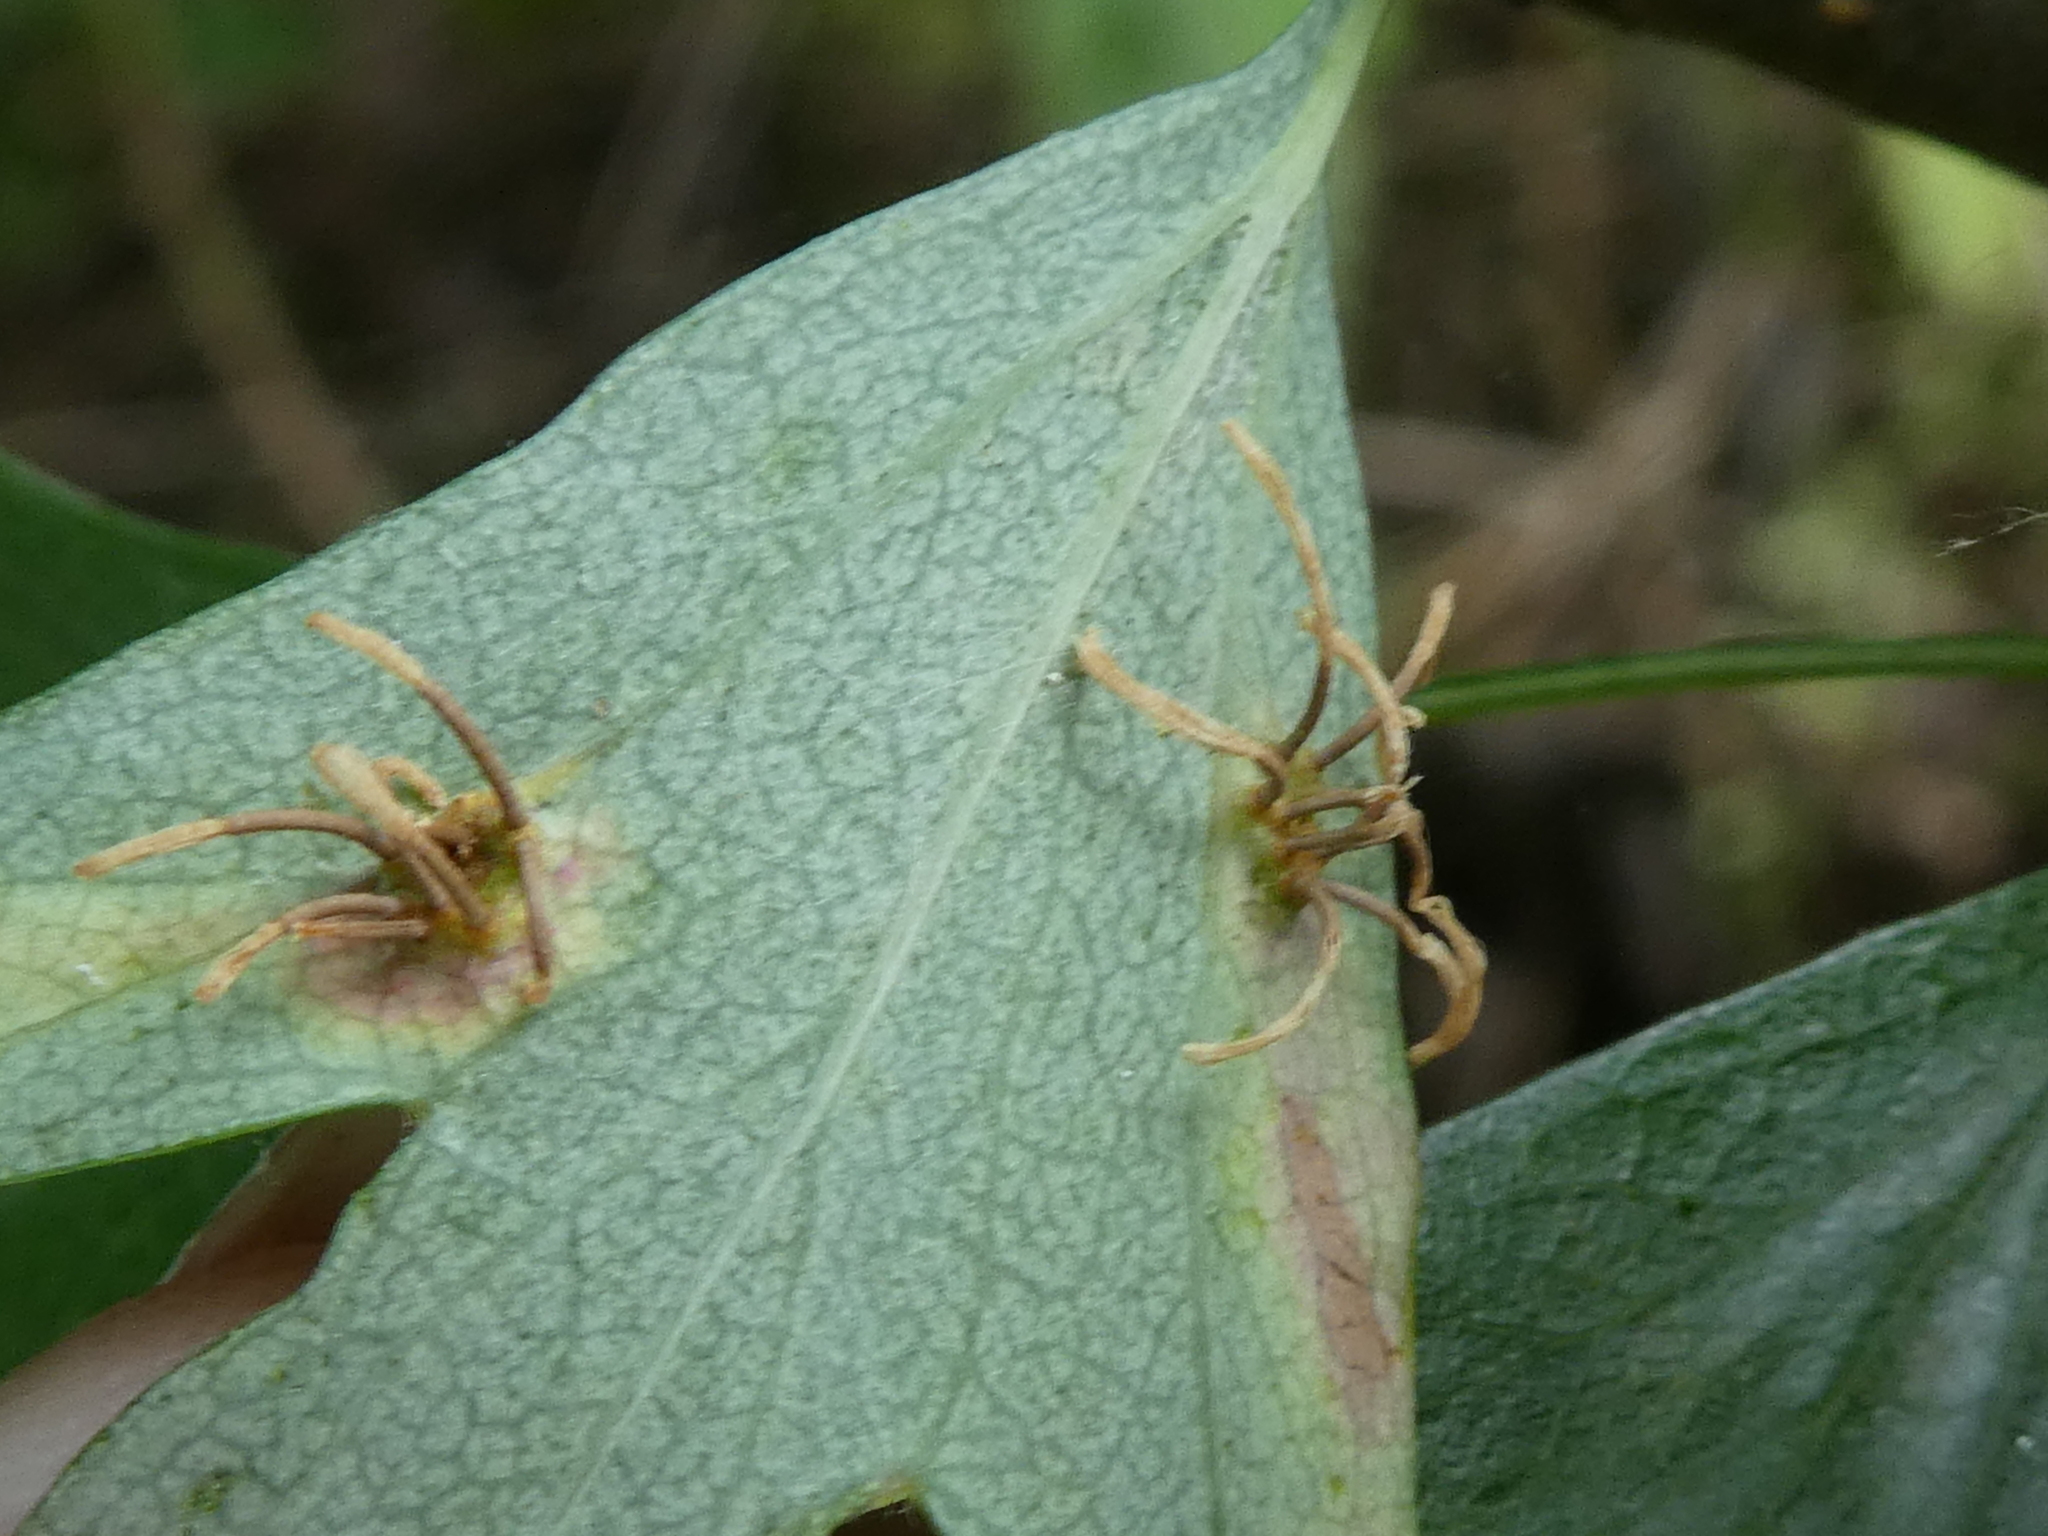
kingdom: Fungi
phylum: Basidiomycota
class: Pucciniomycetes
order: Pucciniales
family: Gymnosporangiaceae
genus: Gymnosporangium
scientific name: Gymnosporangium clavariiforme
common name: Tongues of fire
